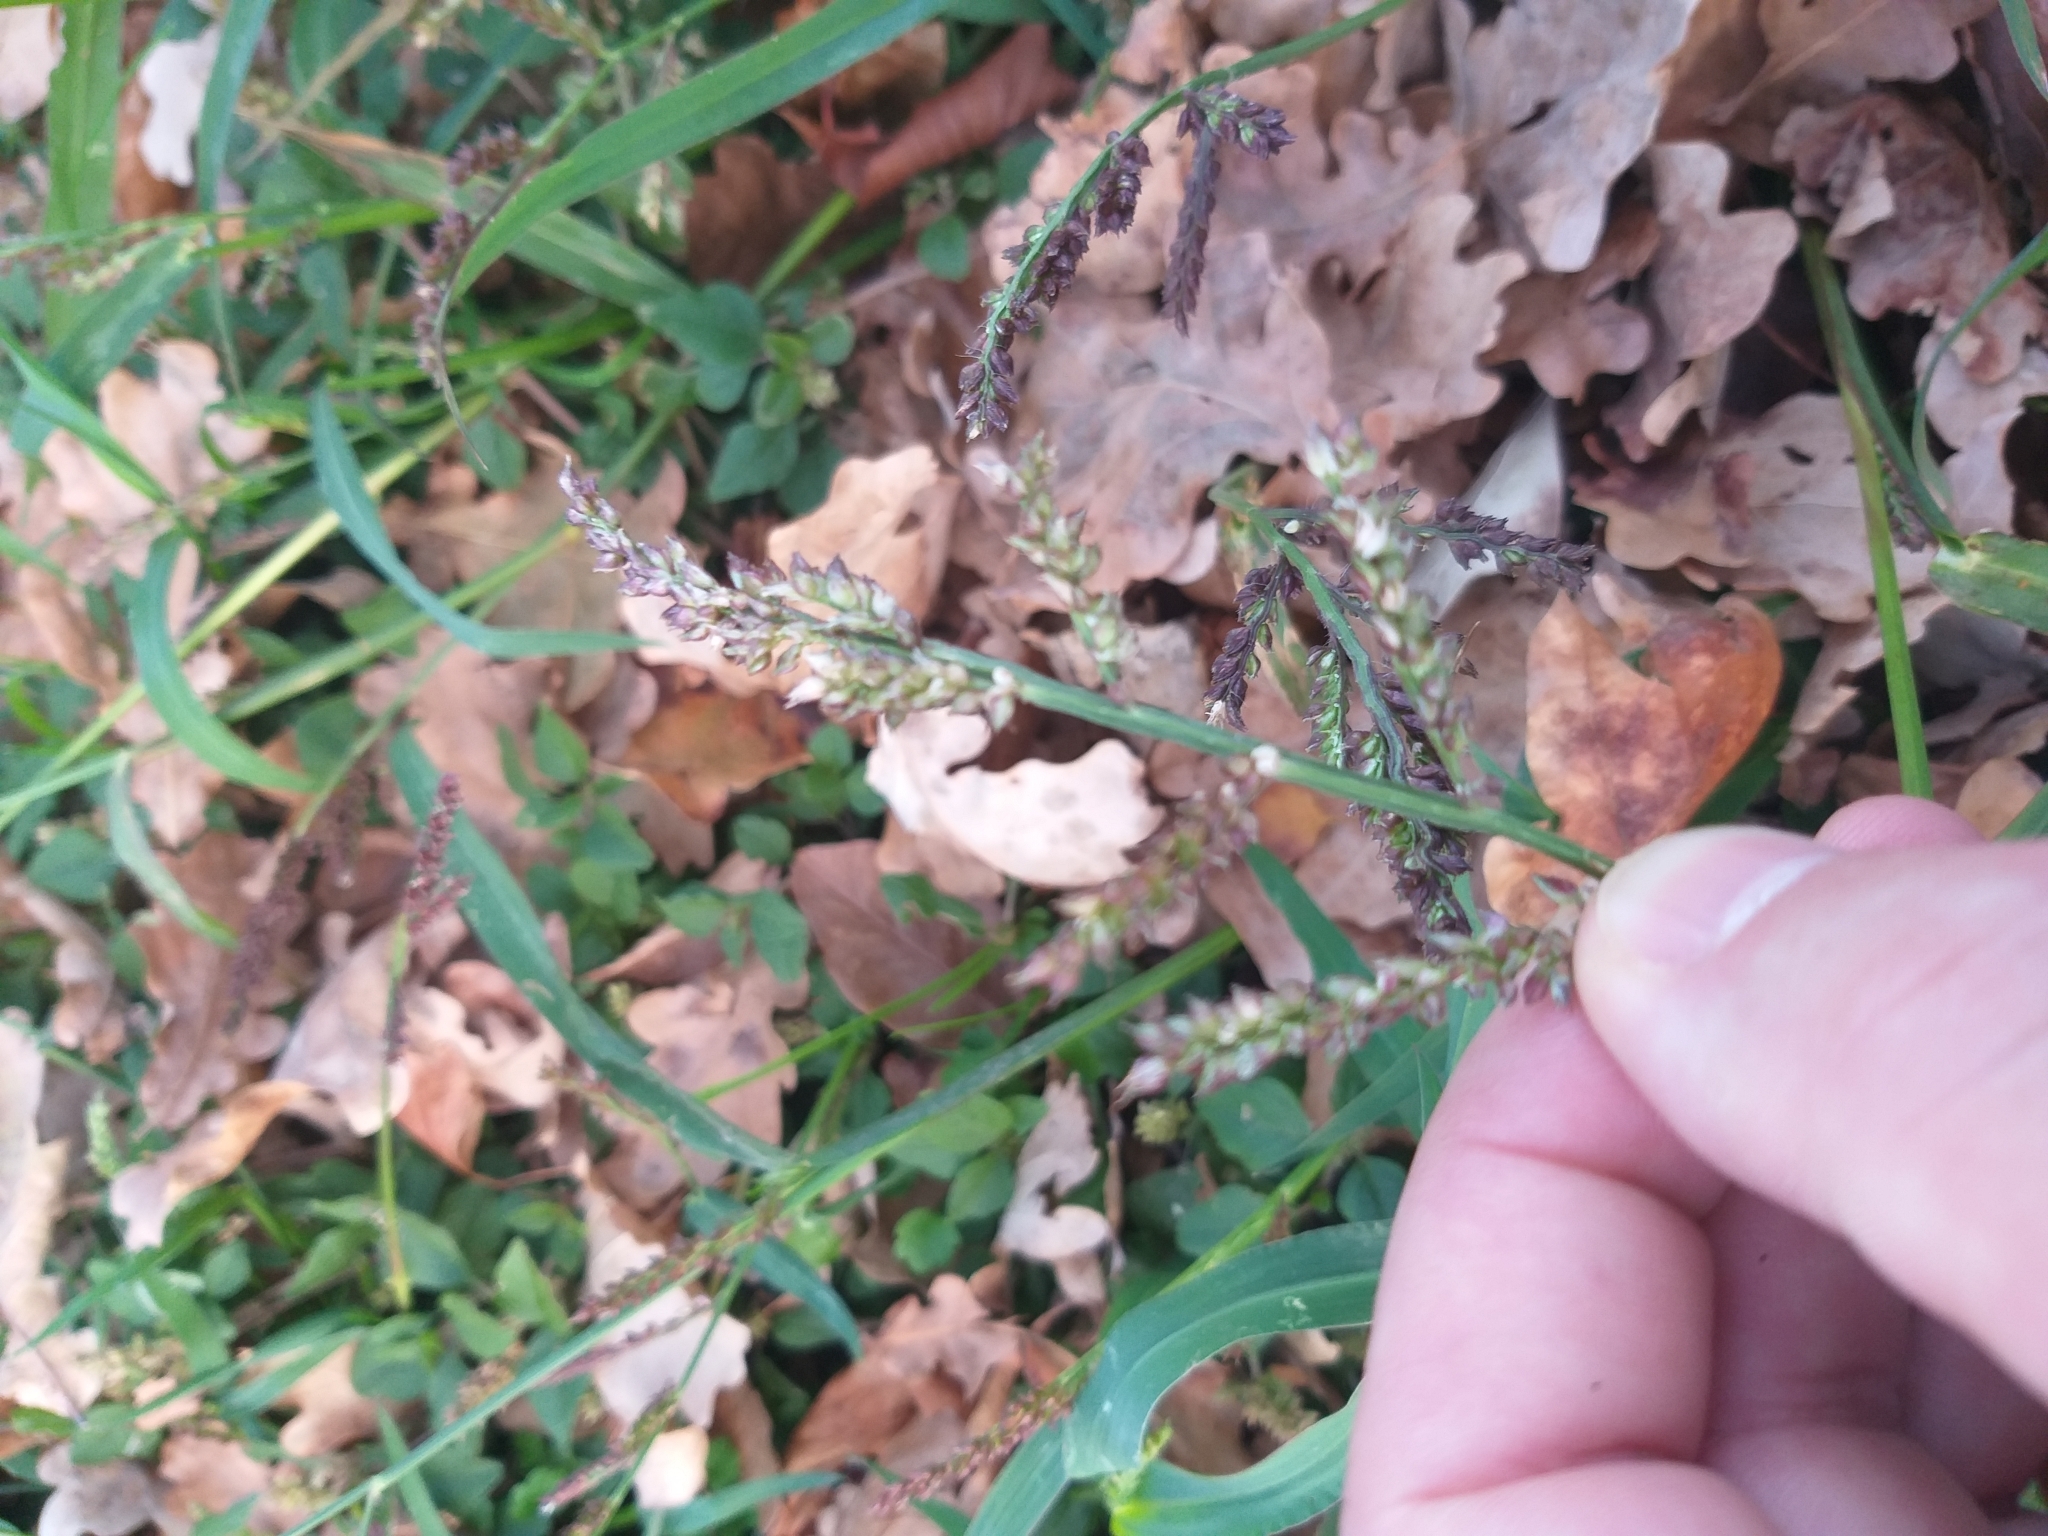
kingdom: Plantae
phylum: Tracheophyta
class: Liliopsida
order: Poales
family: Poaceae
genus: Echinochloa
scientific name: Echinochloa crus-galli
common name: Cockspur
